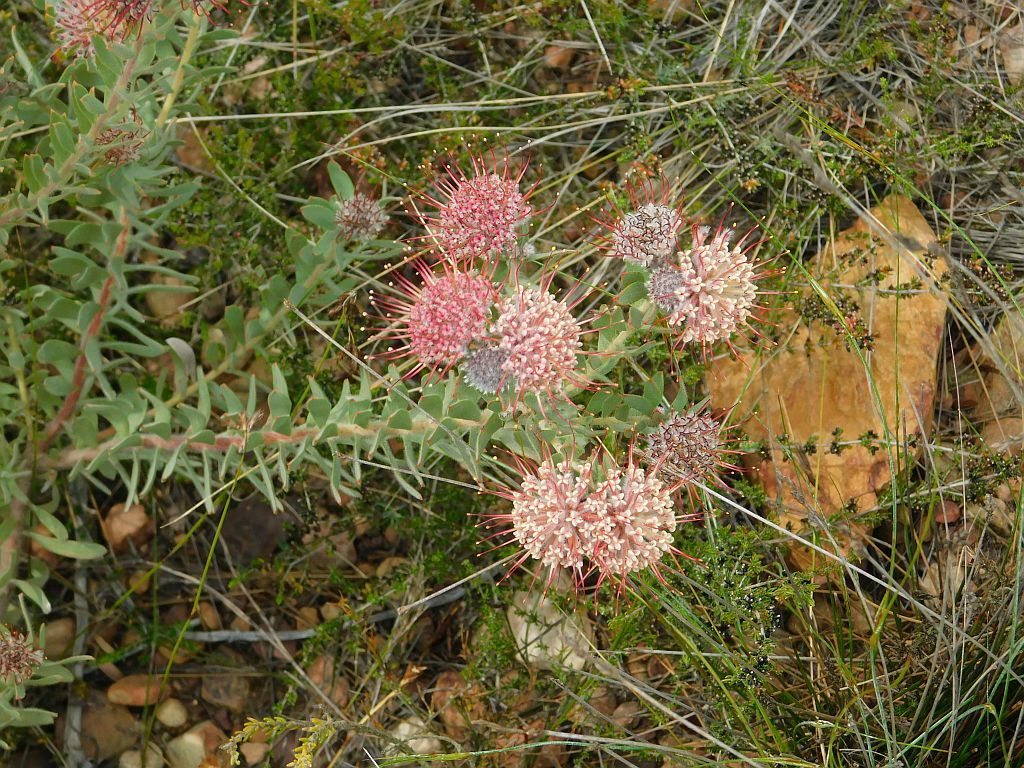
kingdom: Plantae
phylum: Tracheophyta
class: Magnoliopsida
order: Proteales
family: Proteaceae
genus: Leucospermum
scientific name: Leucospermum calligerum
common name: Arid pincushion
